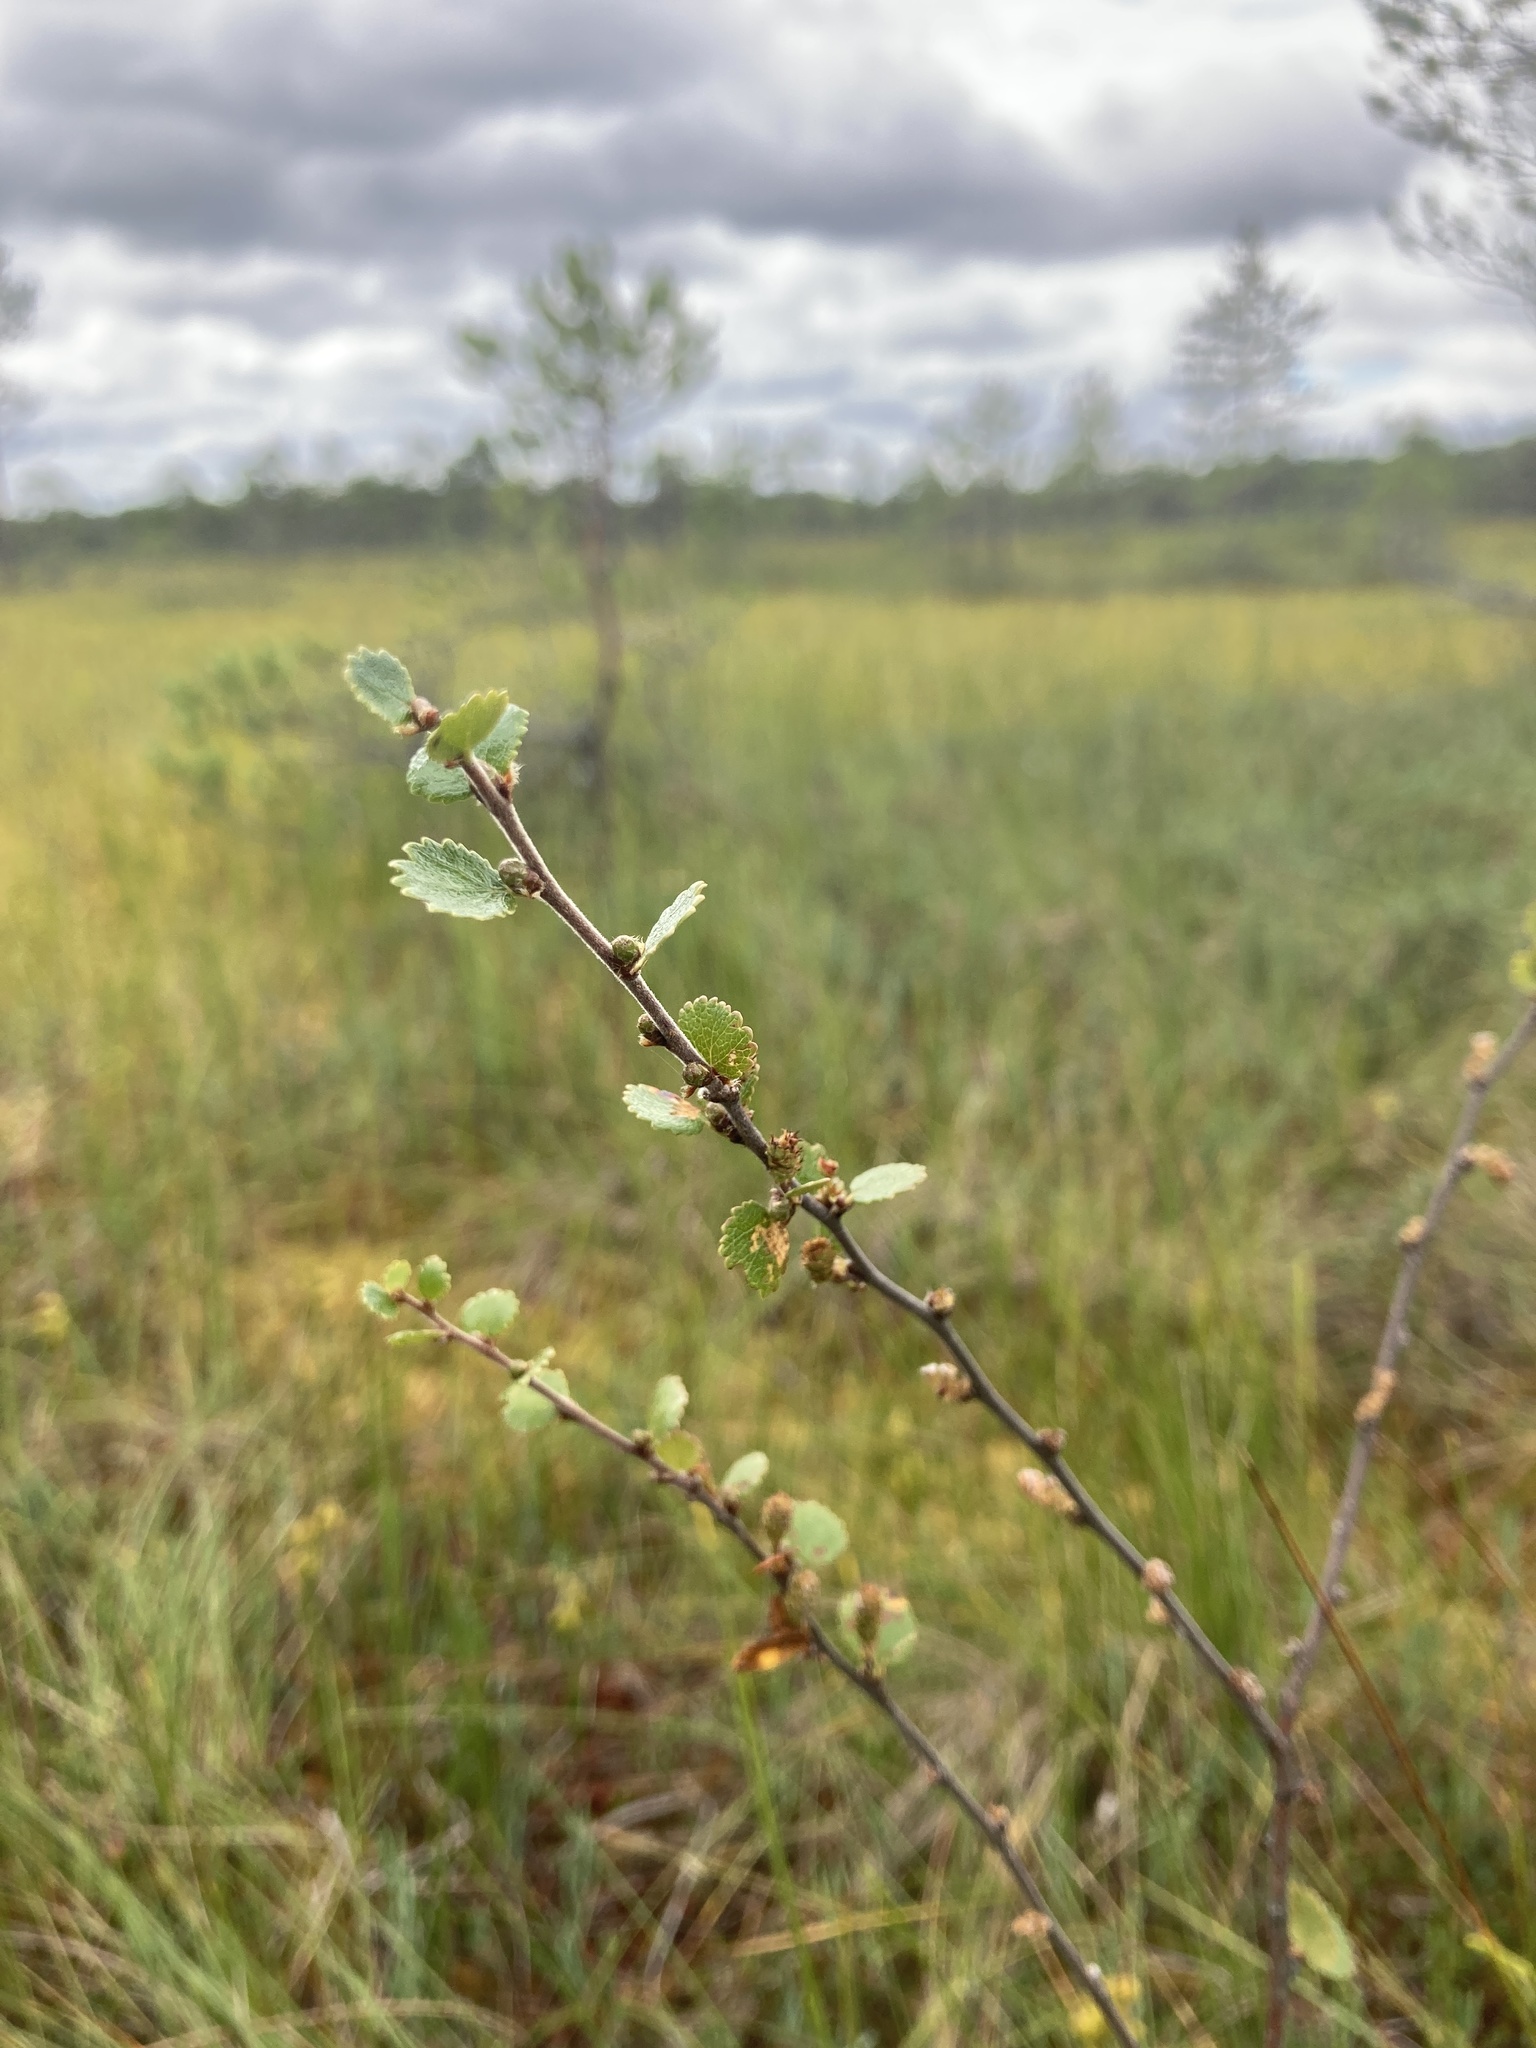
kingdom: Plantae
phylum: Tracheophyta
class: Magnoliopsida
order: Fagales
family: Betulaceae
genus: Betula
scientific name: Betula nana
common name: Arctic dwarf birch
